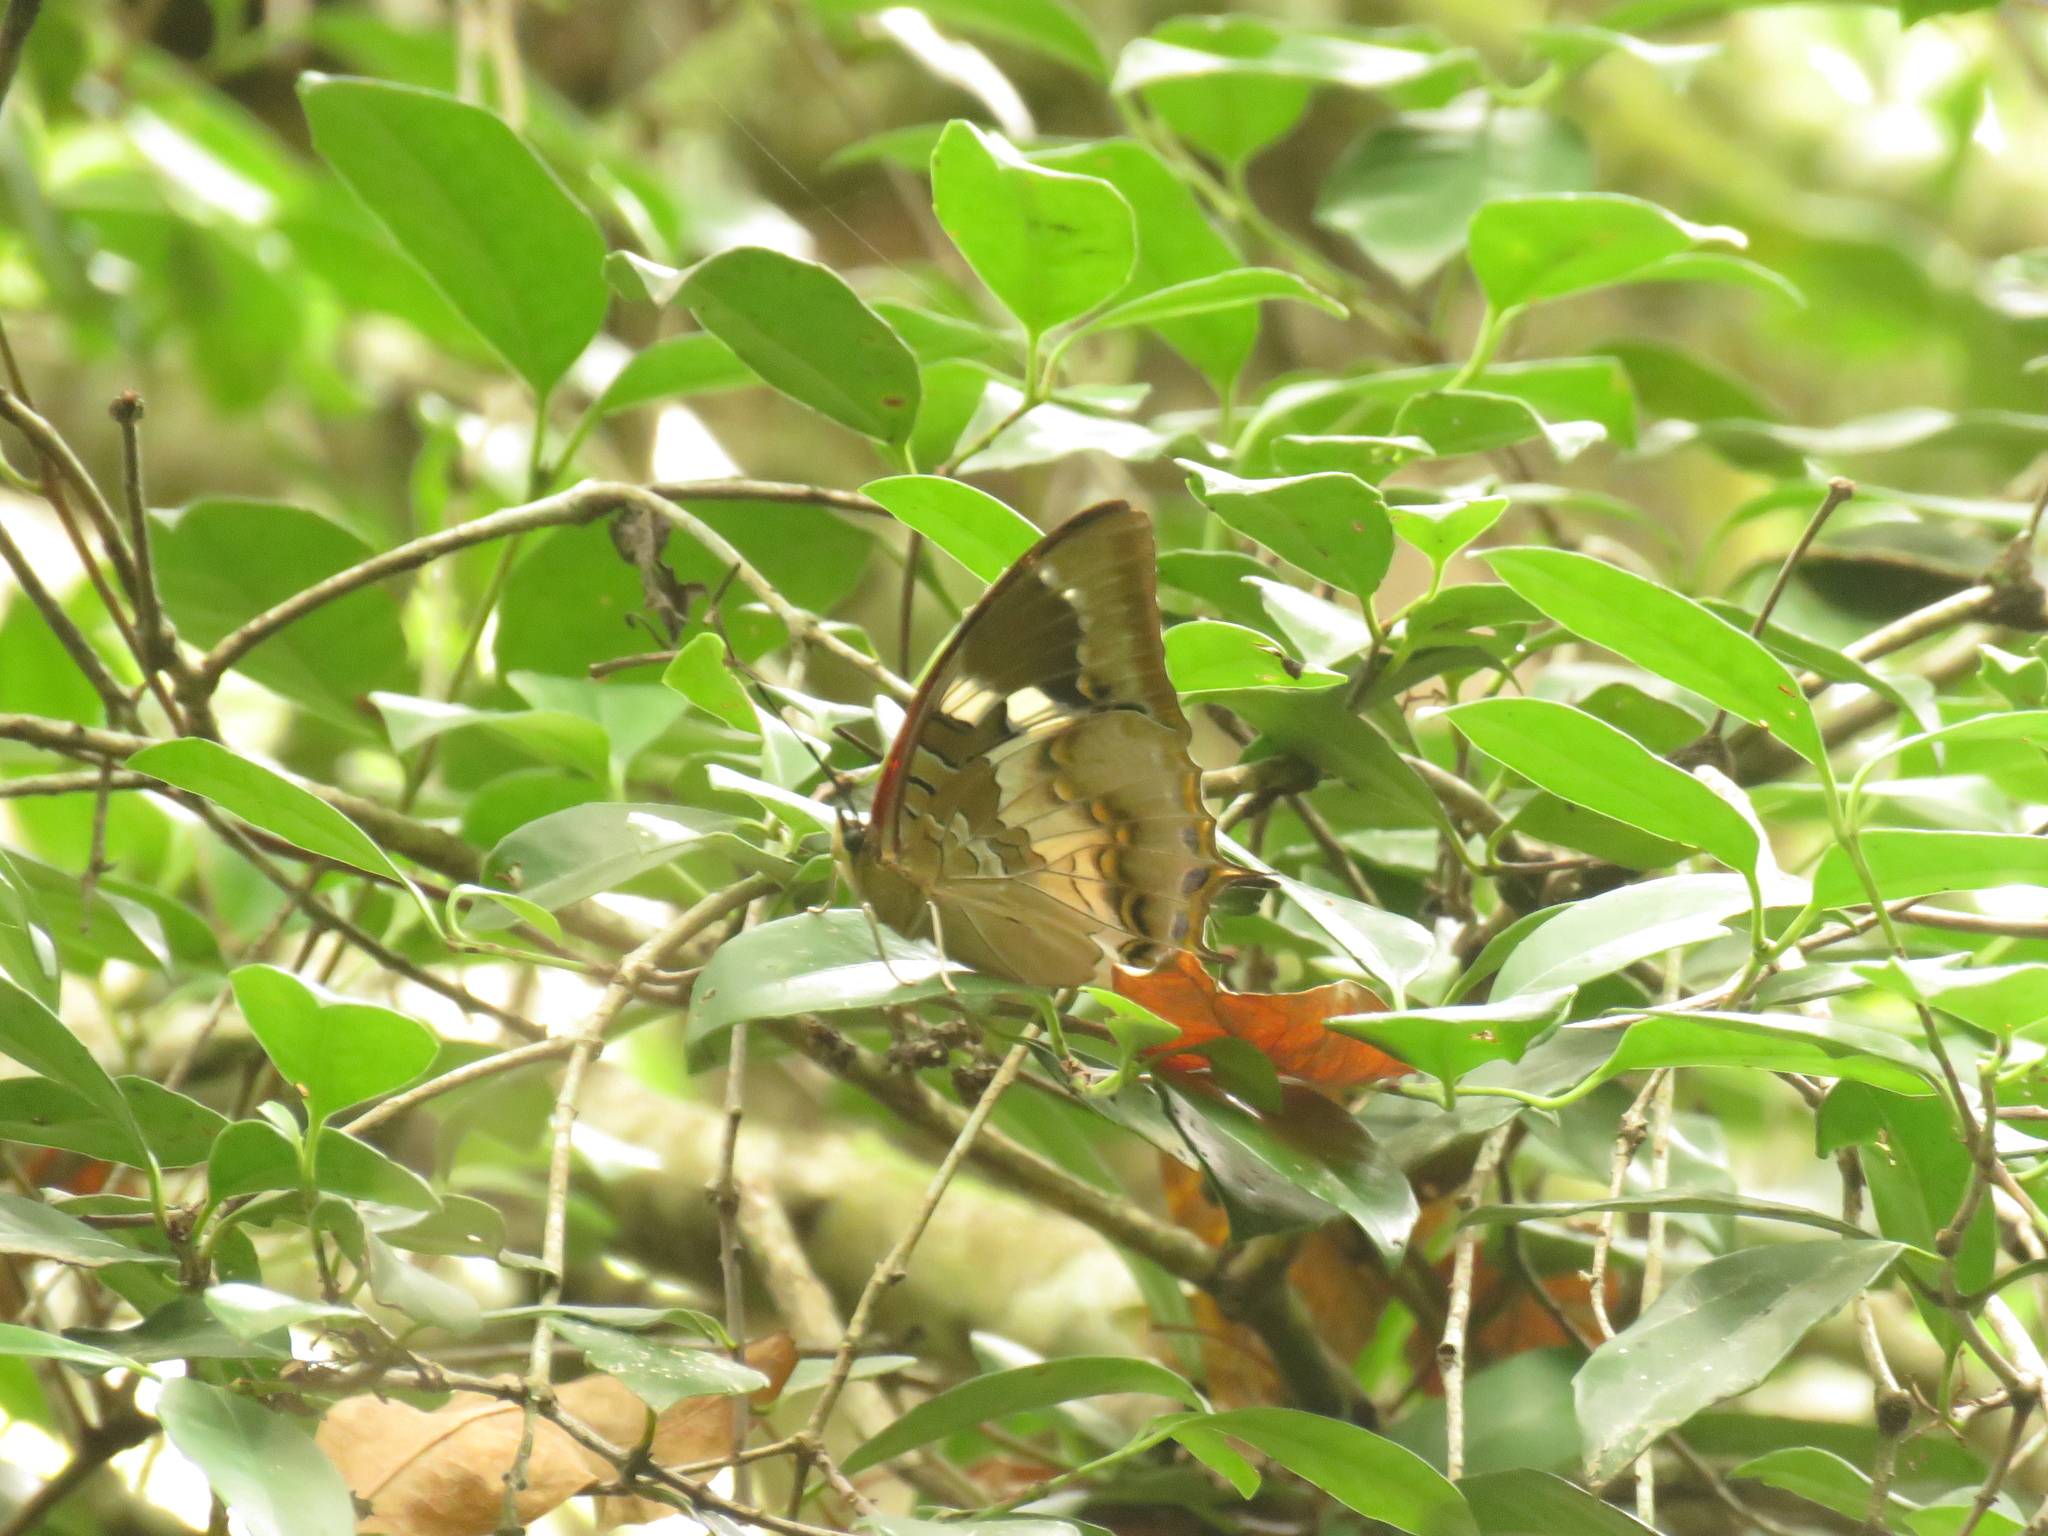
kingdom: Animalia
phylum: Arthropoda
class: Insecta
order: Lepidoptera
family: Nymphalidae
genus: Charaxes
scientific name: Charaxes xiphares
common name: Forest-king charaxes
